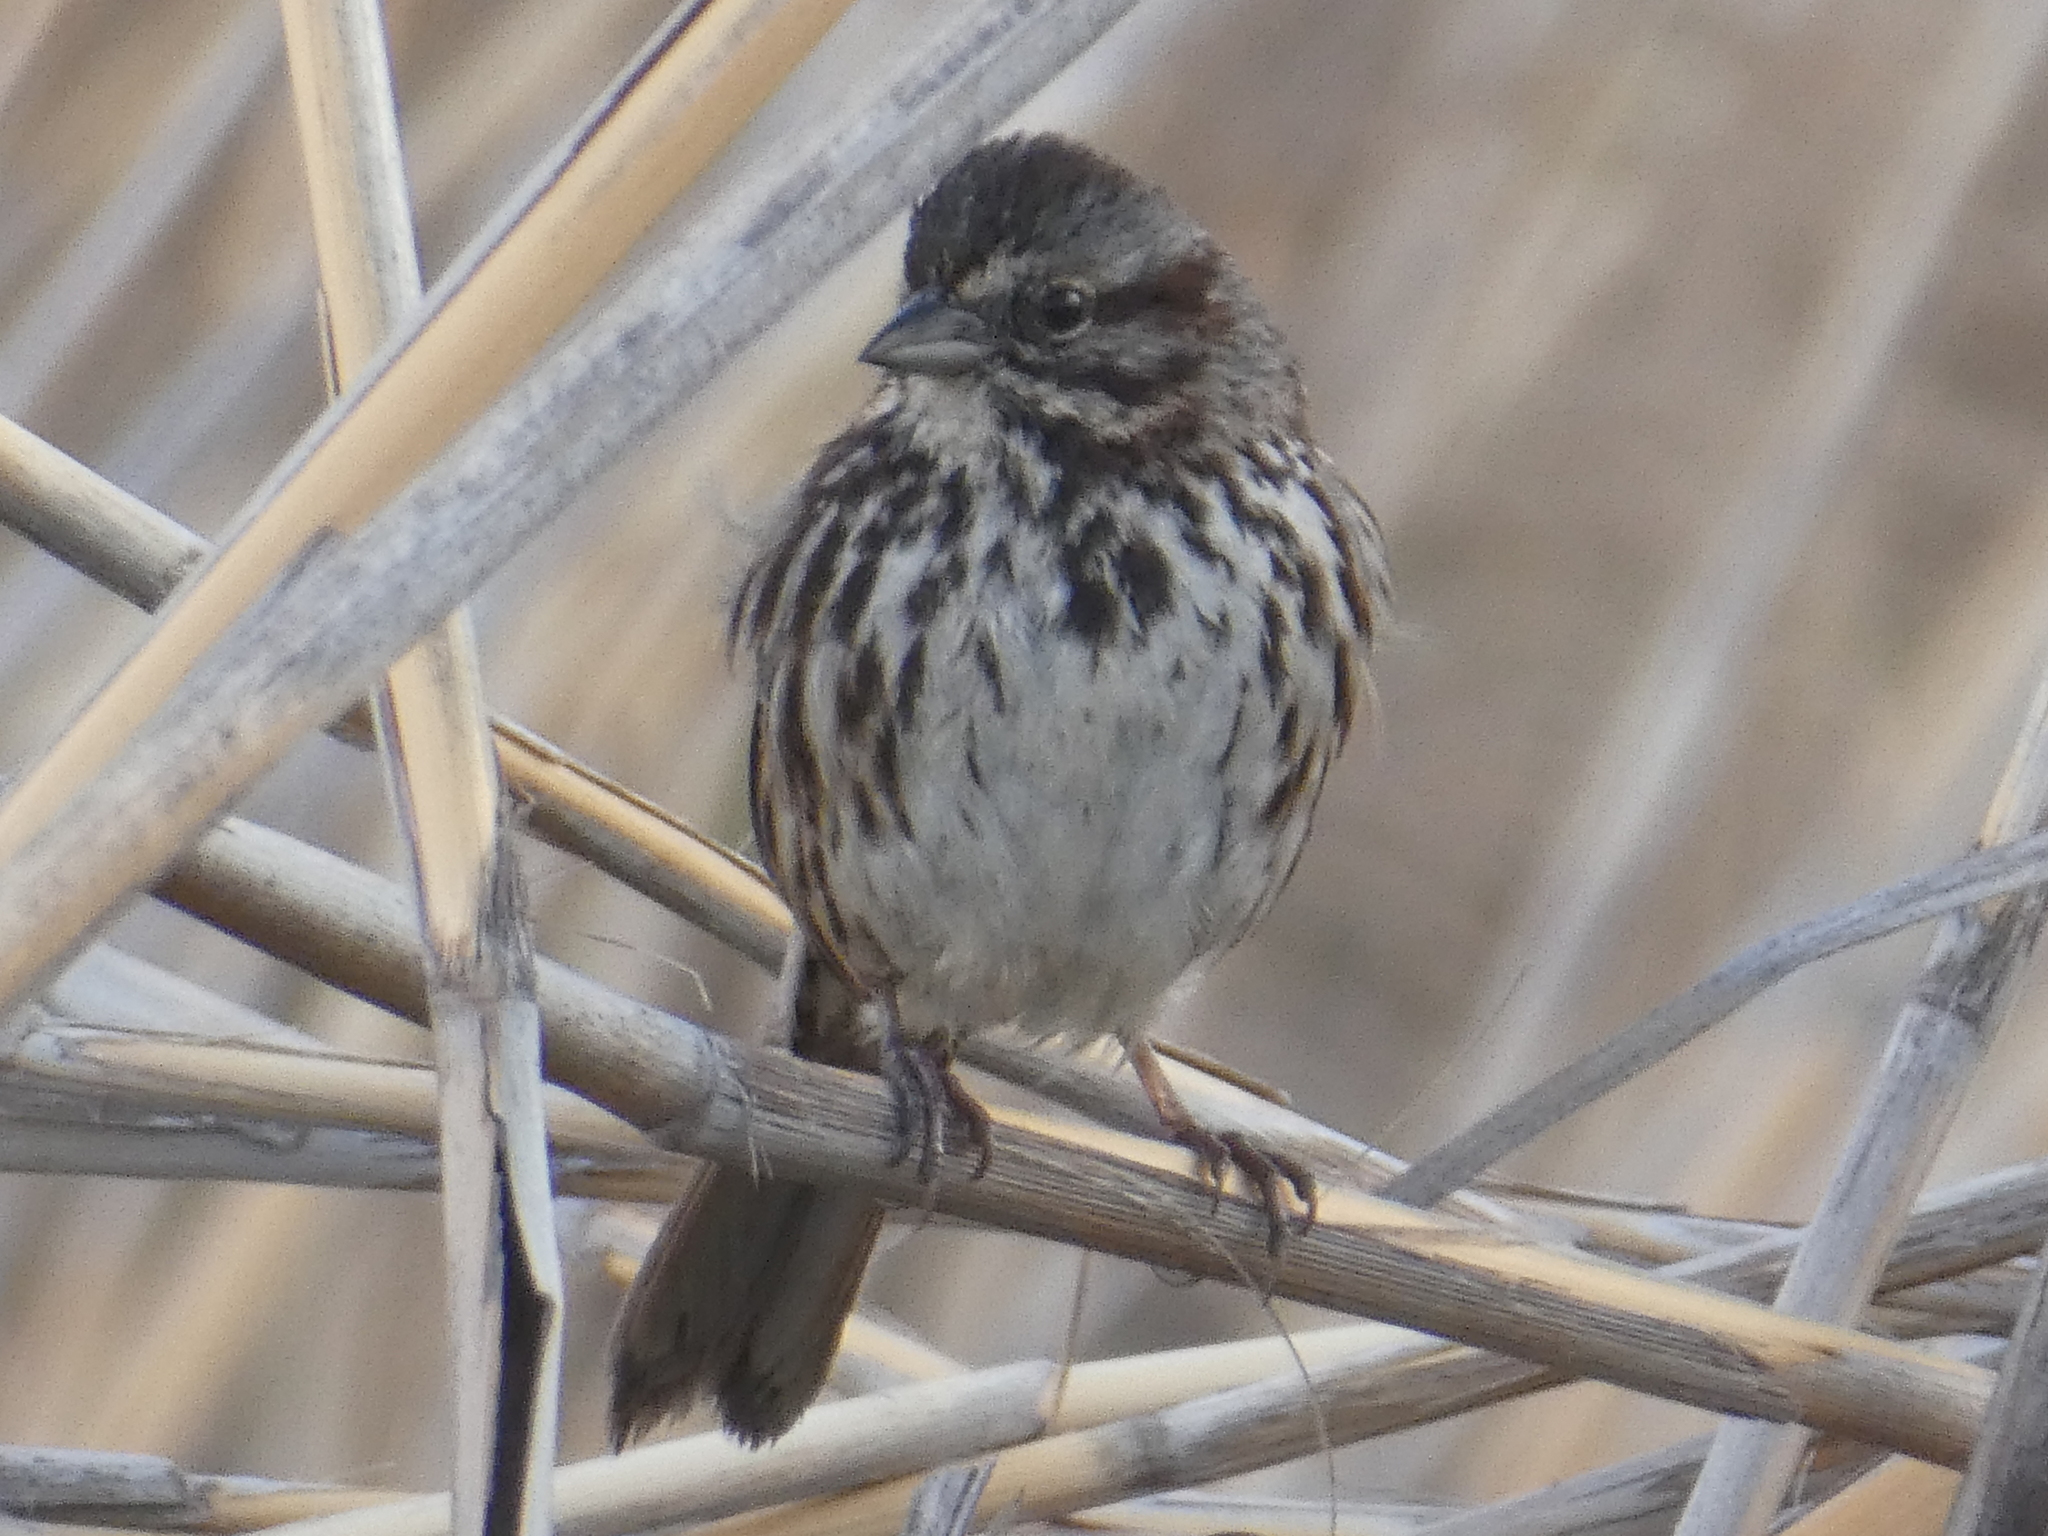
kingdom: Animalia
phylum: Chordata
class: Aves
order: Passeriformes
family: Passerellidae
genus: Melospiza
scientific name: Melospiza melodia
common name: Song sparrow
